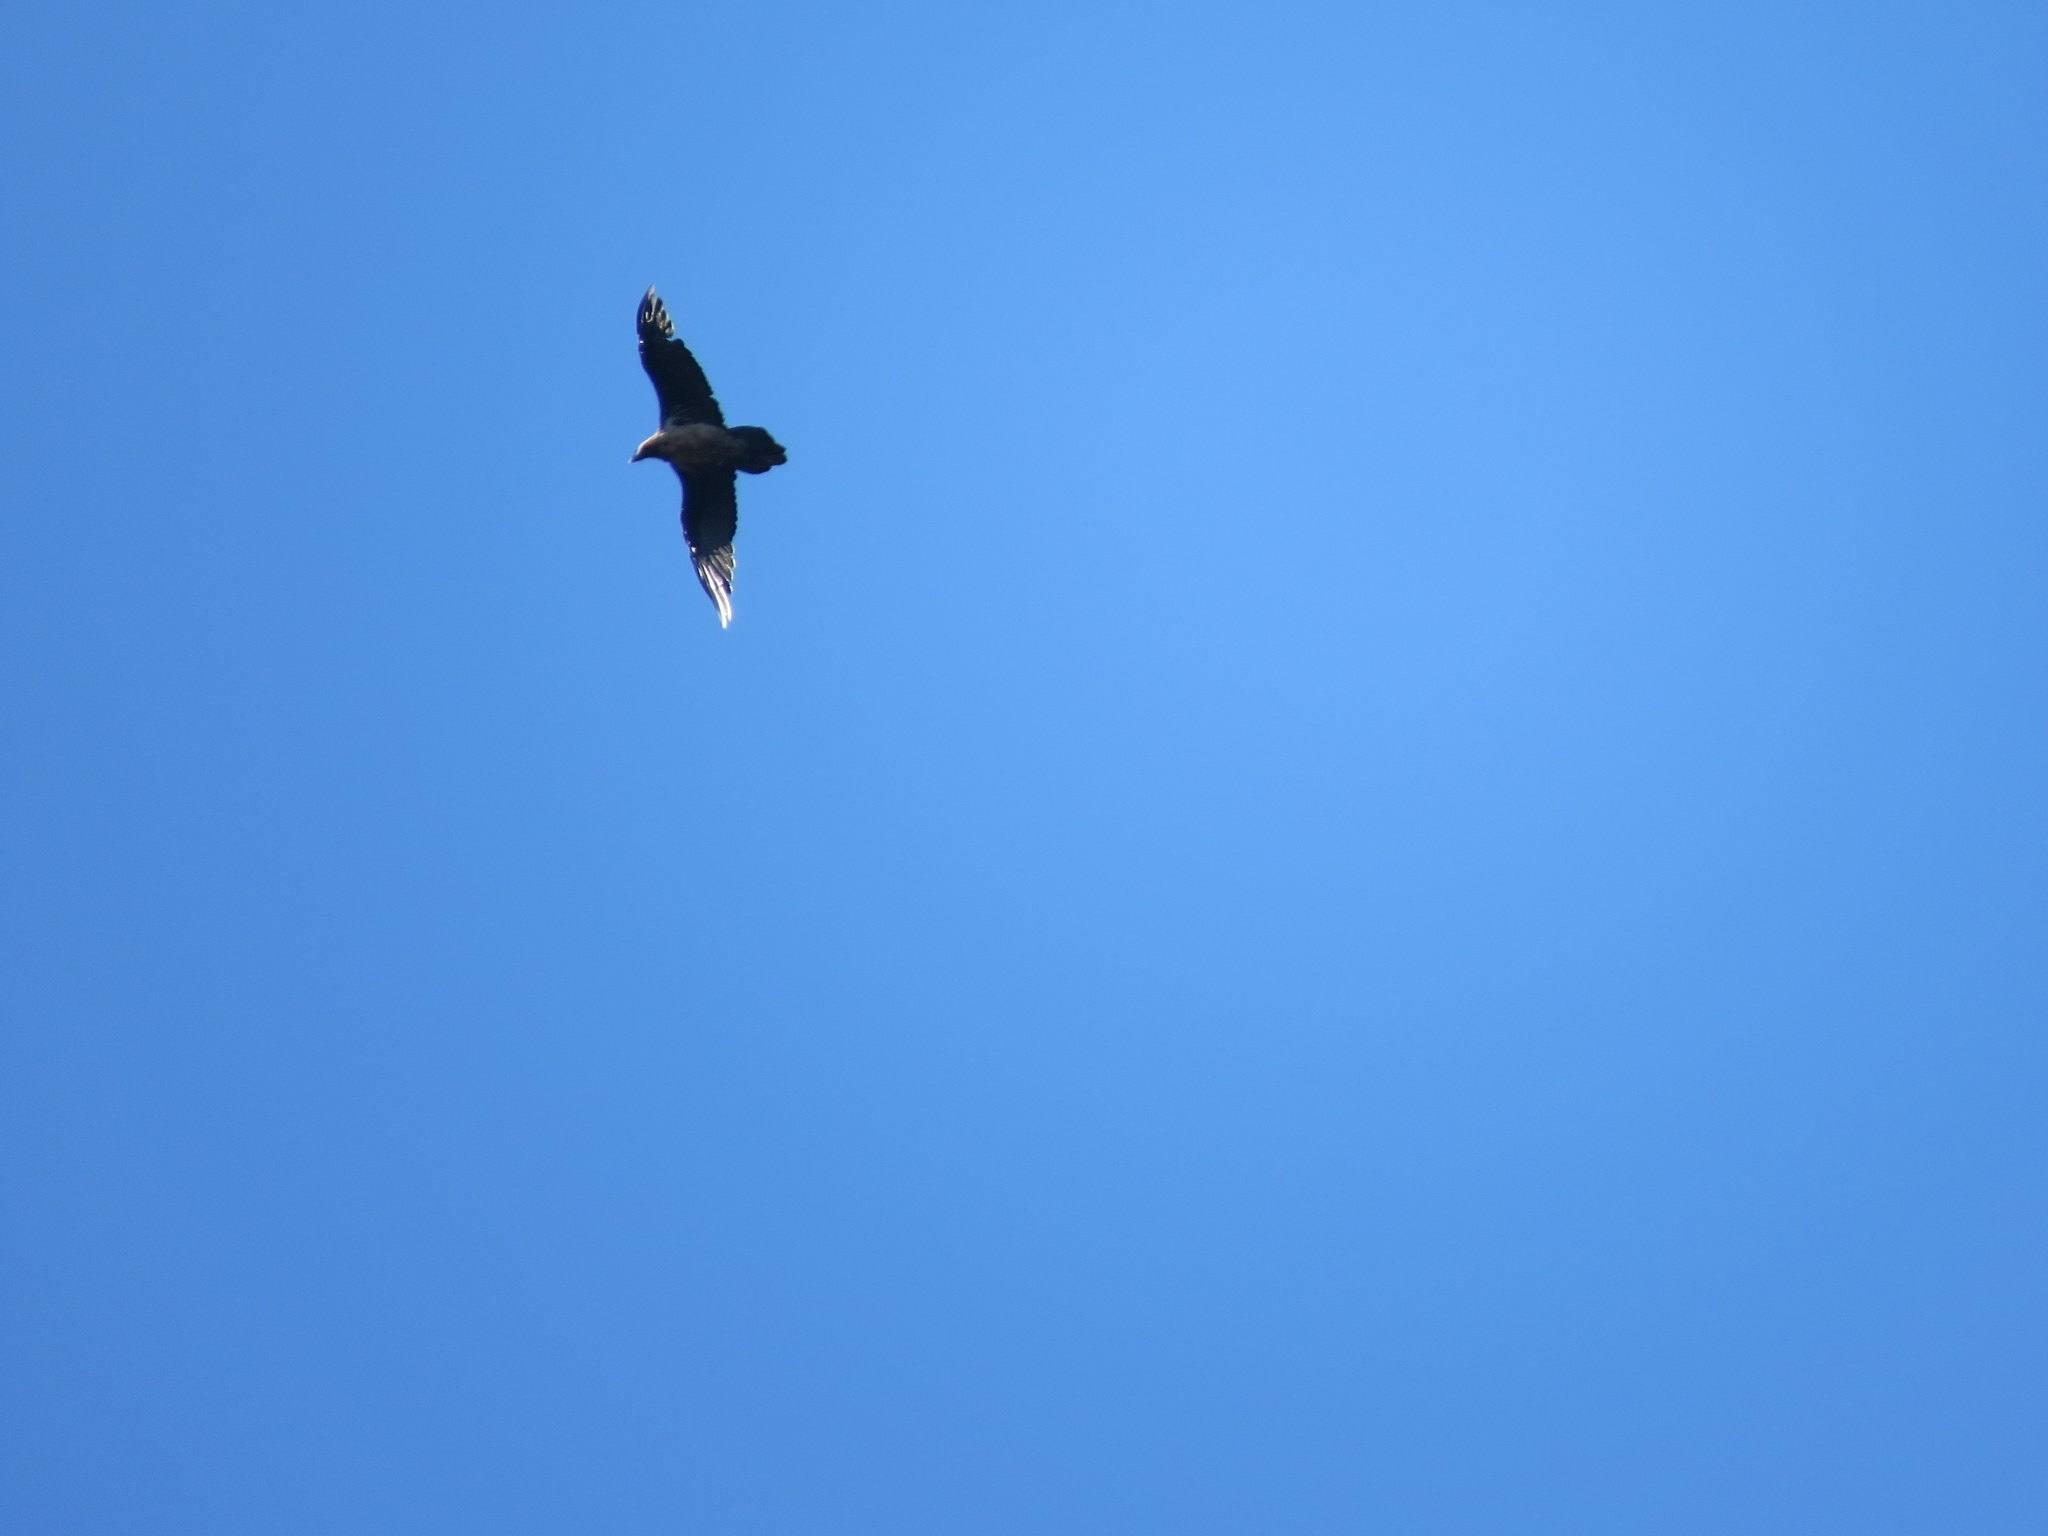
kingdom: Animalia
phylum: Chordata
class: Aves
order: Accipitriformes
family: Accipitridae
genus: Gypaetus
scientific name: Gypaetus barbatus
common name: Bearded vulture
